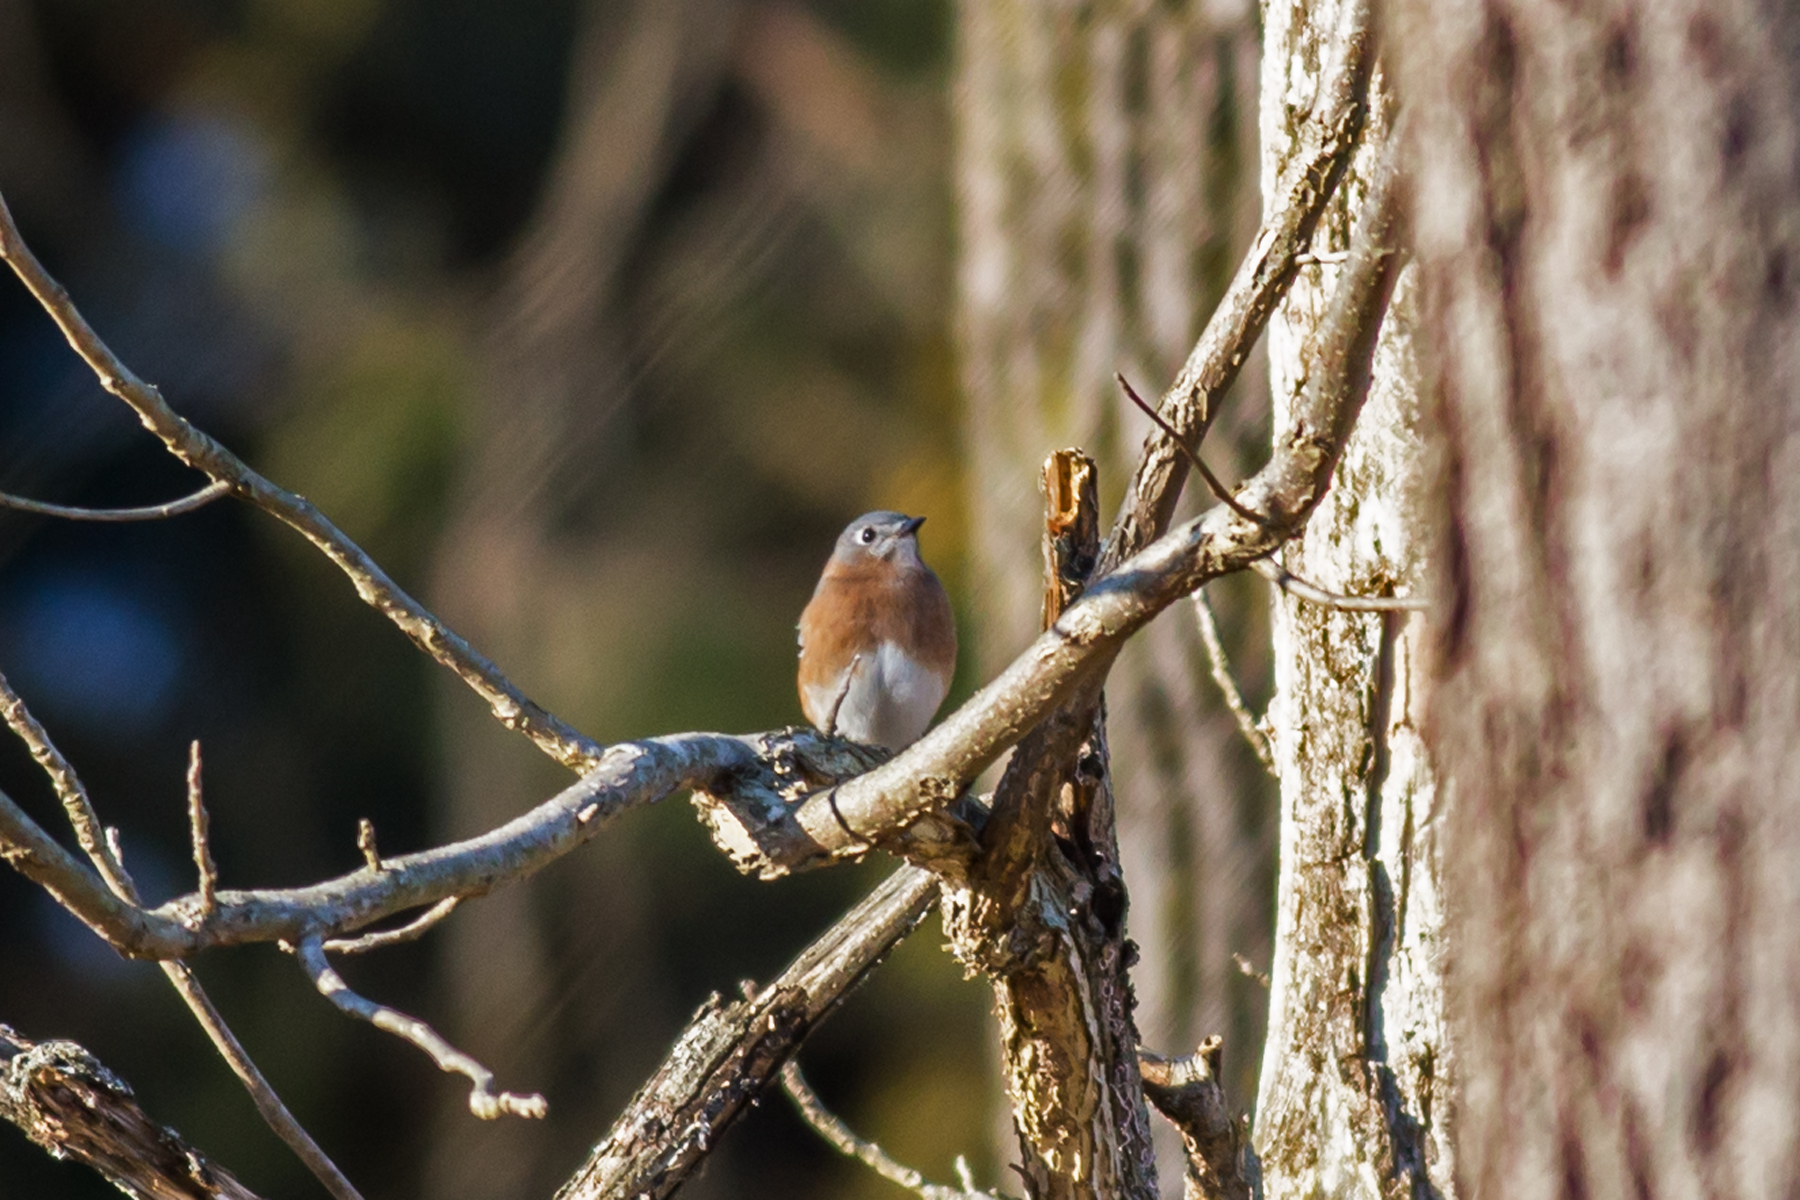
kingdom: Animalia
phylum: Chordata
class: Aves
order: Passeriformes
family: Turdidae
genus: Sialia
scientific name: Sialia sialis
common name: Eastern bluebird
